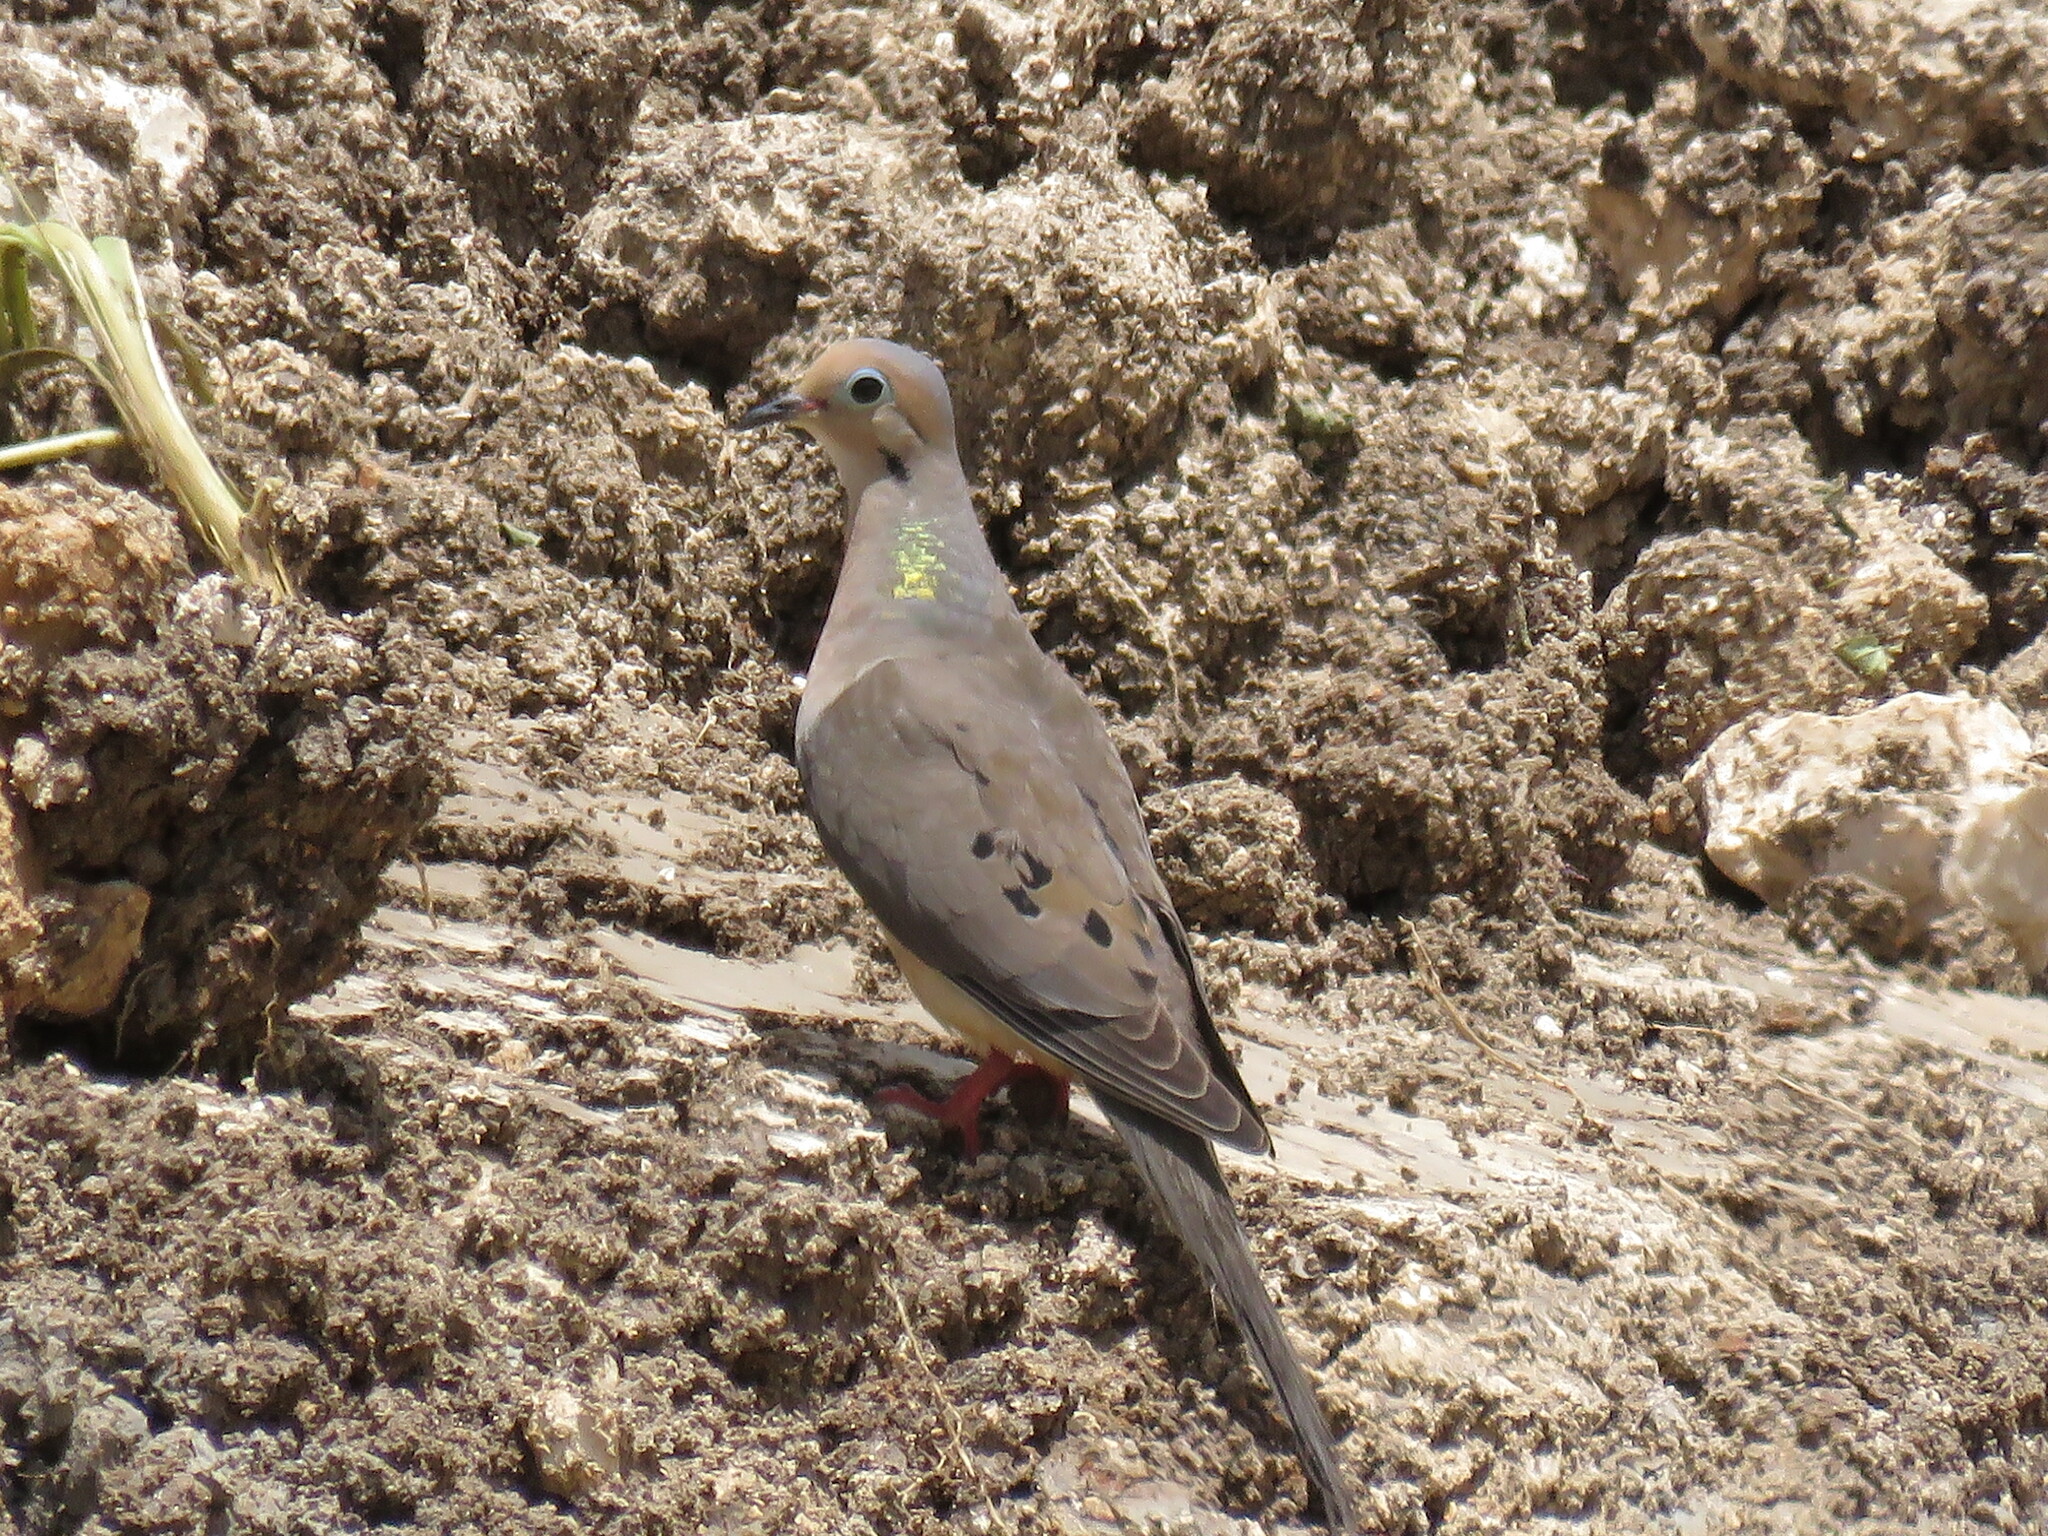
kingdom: Animalia
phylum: Chordata
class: Aves
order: Columbiformes
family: Columbidae
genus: Zenaida
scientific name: Zenaida macroura
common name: Mourning dove
